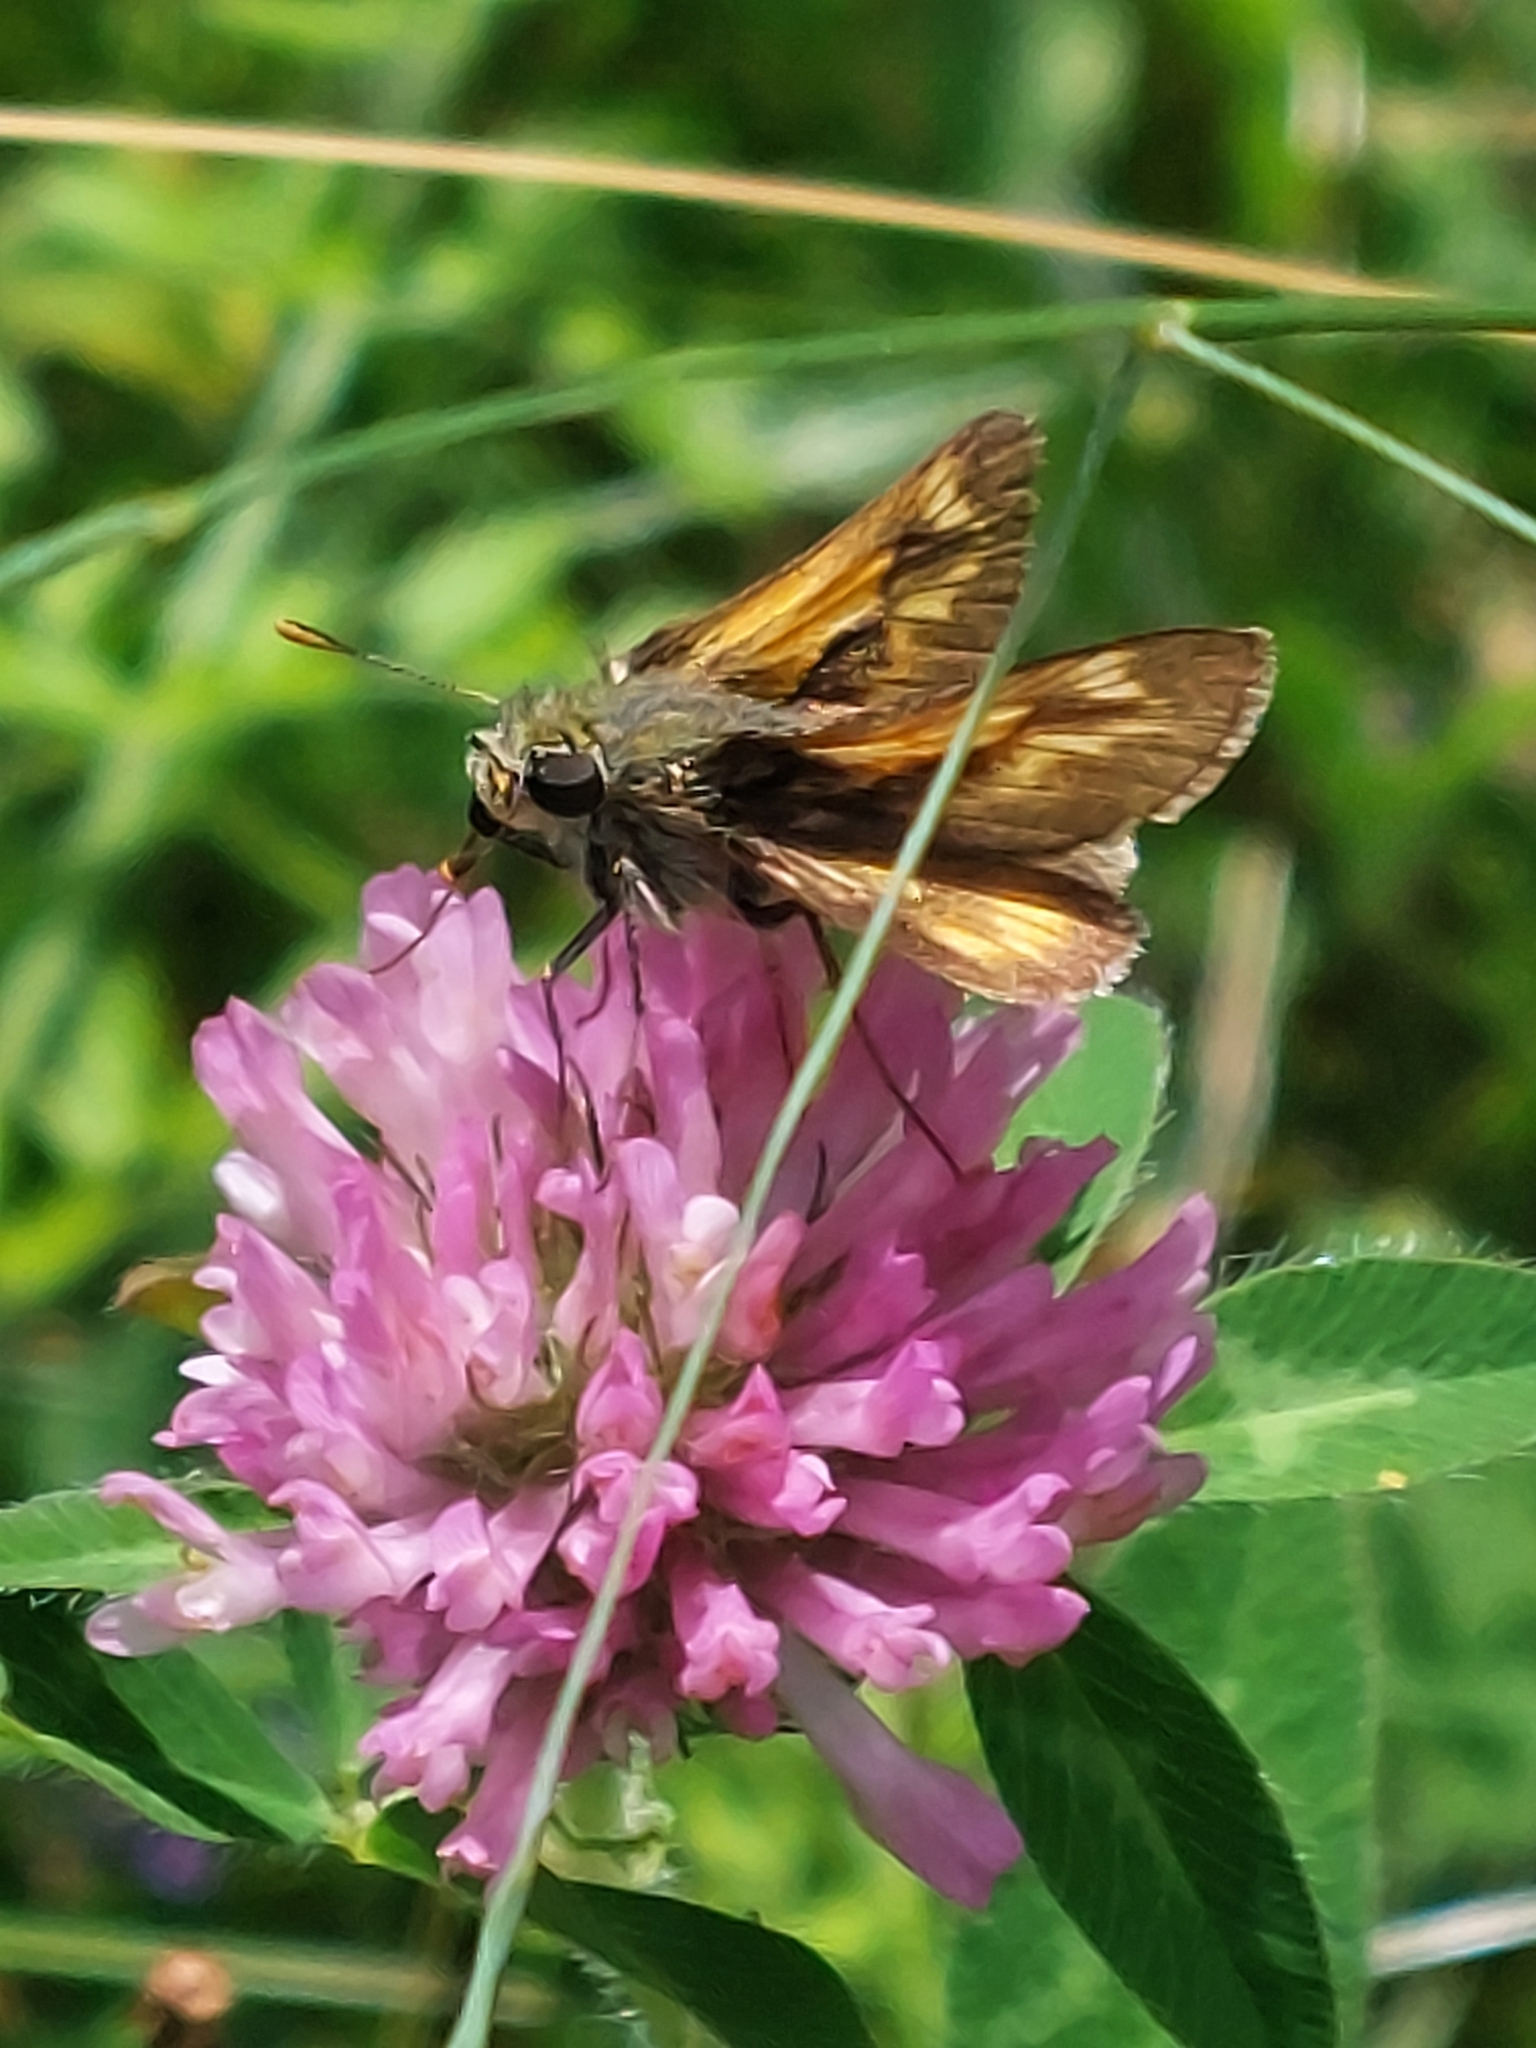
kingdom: Animalia
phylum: Arthropoda
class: Insecta
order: Lepidoptera
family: Hesperiidae
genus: Polites
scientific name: Polites mystic
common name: Long dash
